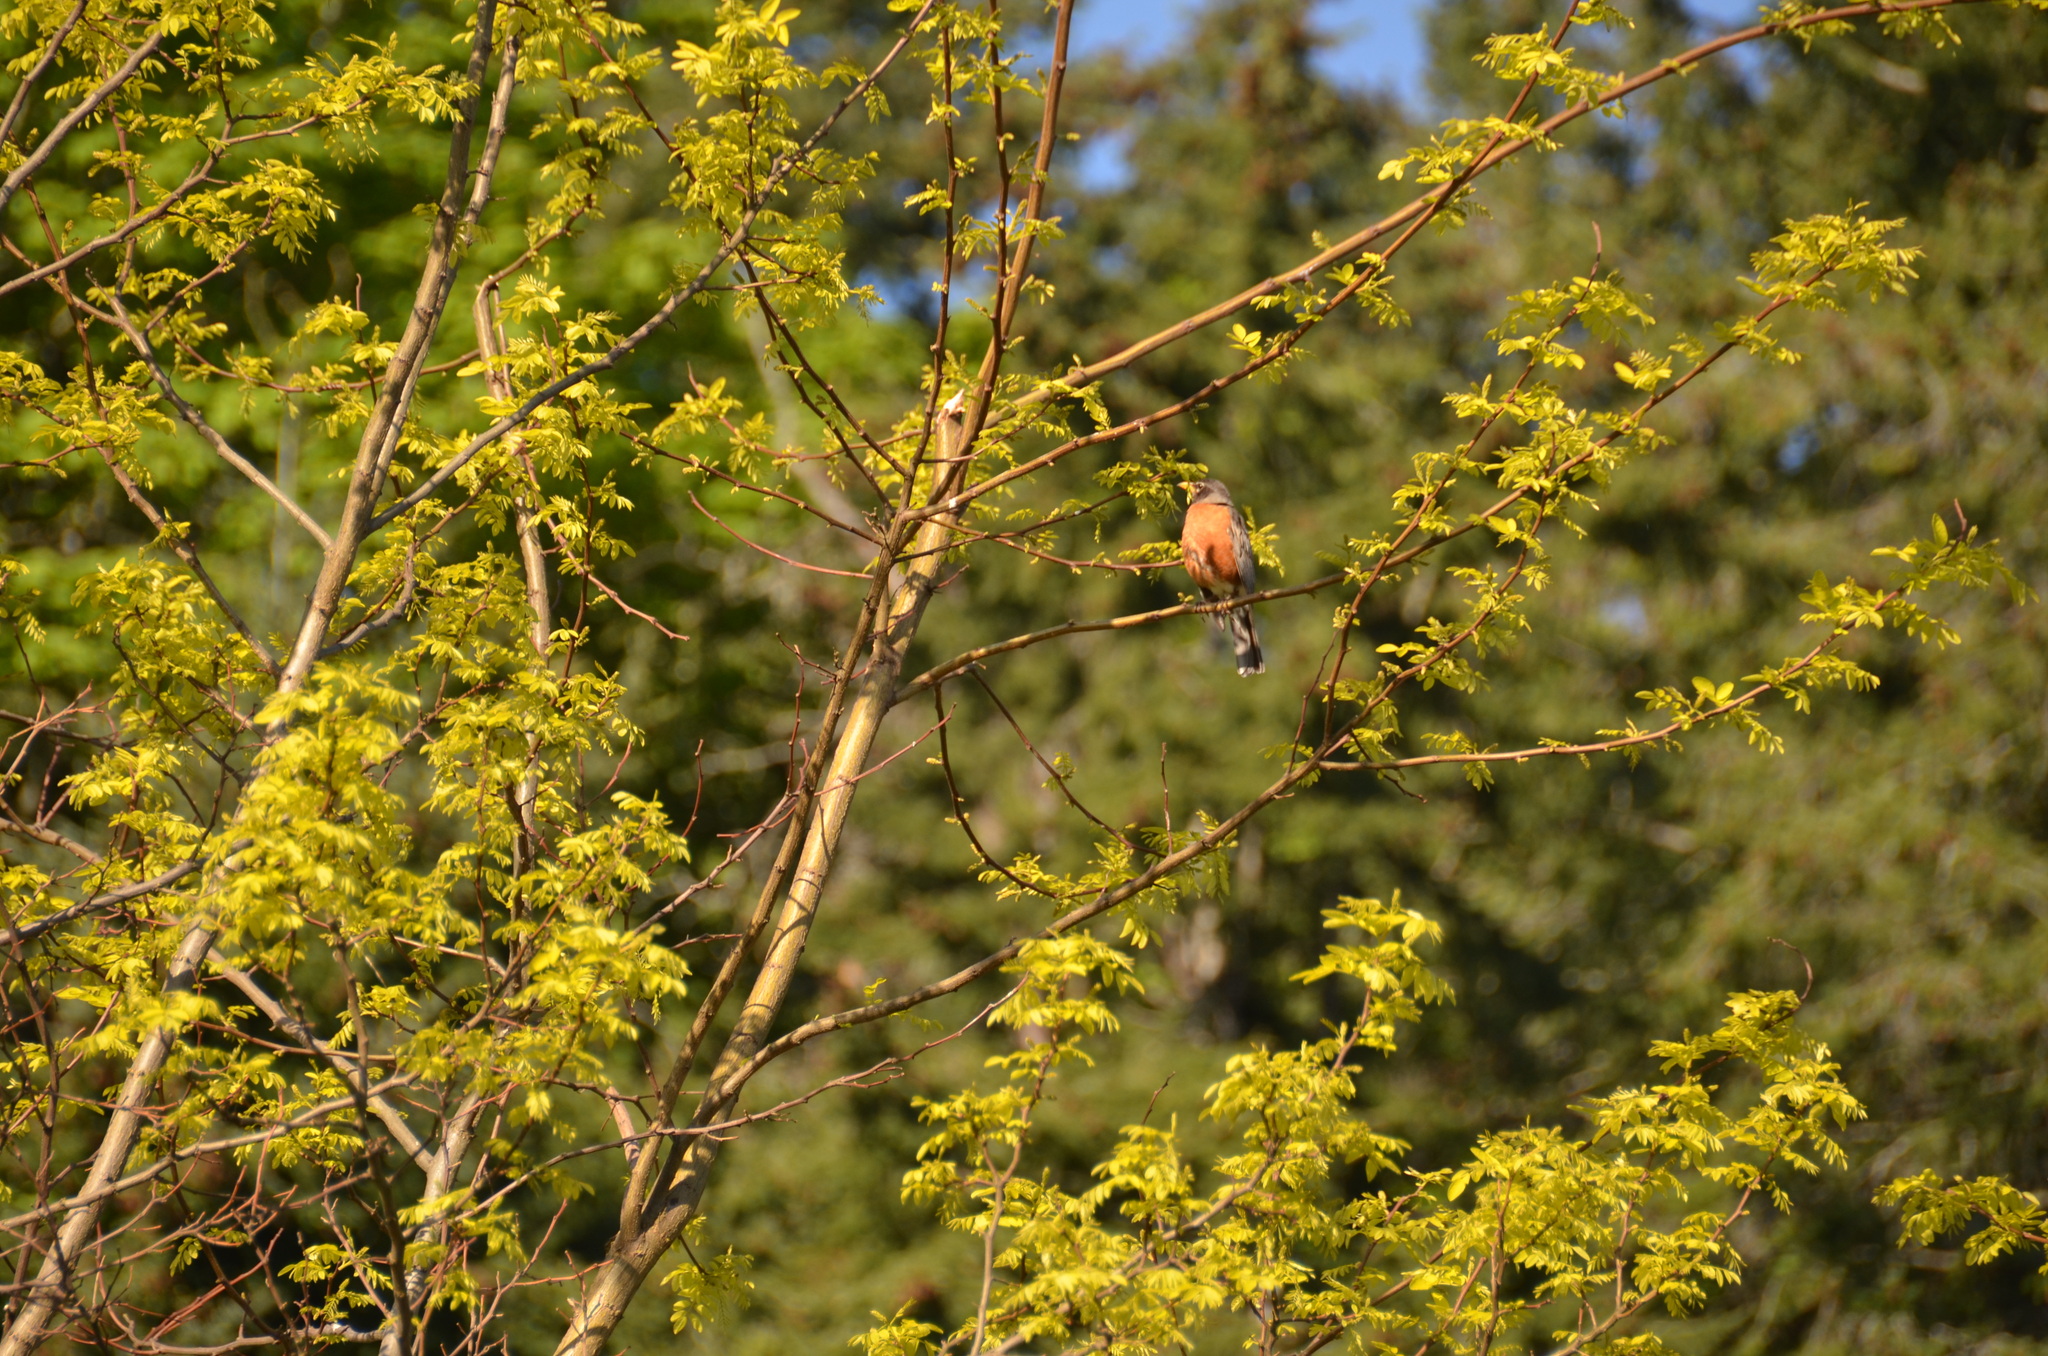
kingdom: Animalia
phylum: Chordata
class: Aves
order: Passeriformes
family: Turdidae
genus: Turdus
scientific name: Turdus migratorius
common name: American robin
